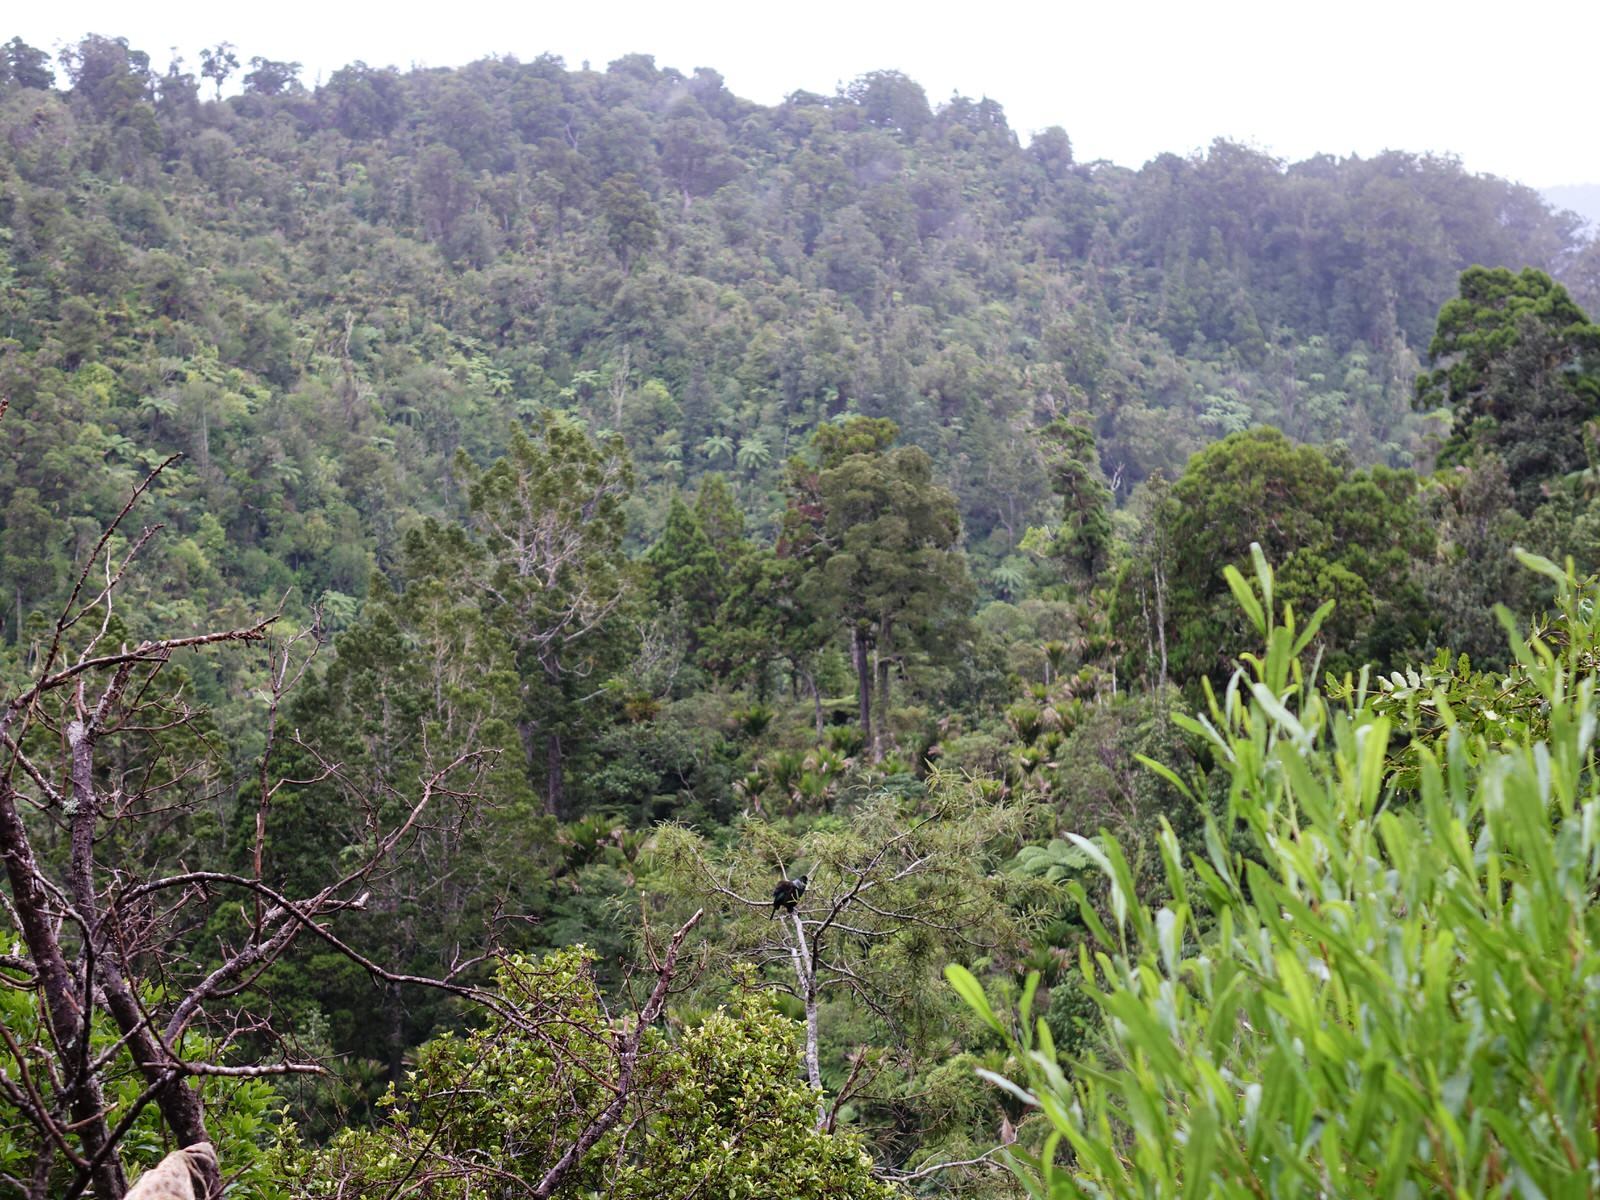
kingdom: Animalia
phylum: Chordata
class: Aves
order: Passeriformes
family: Meliphagidae
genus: Prosthemadera
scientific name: Prosthemadera novaeseelandiae
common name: Tui
